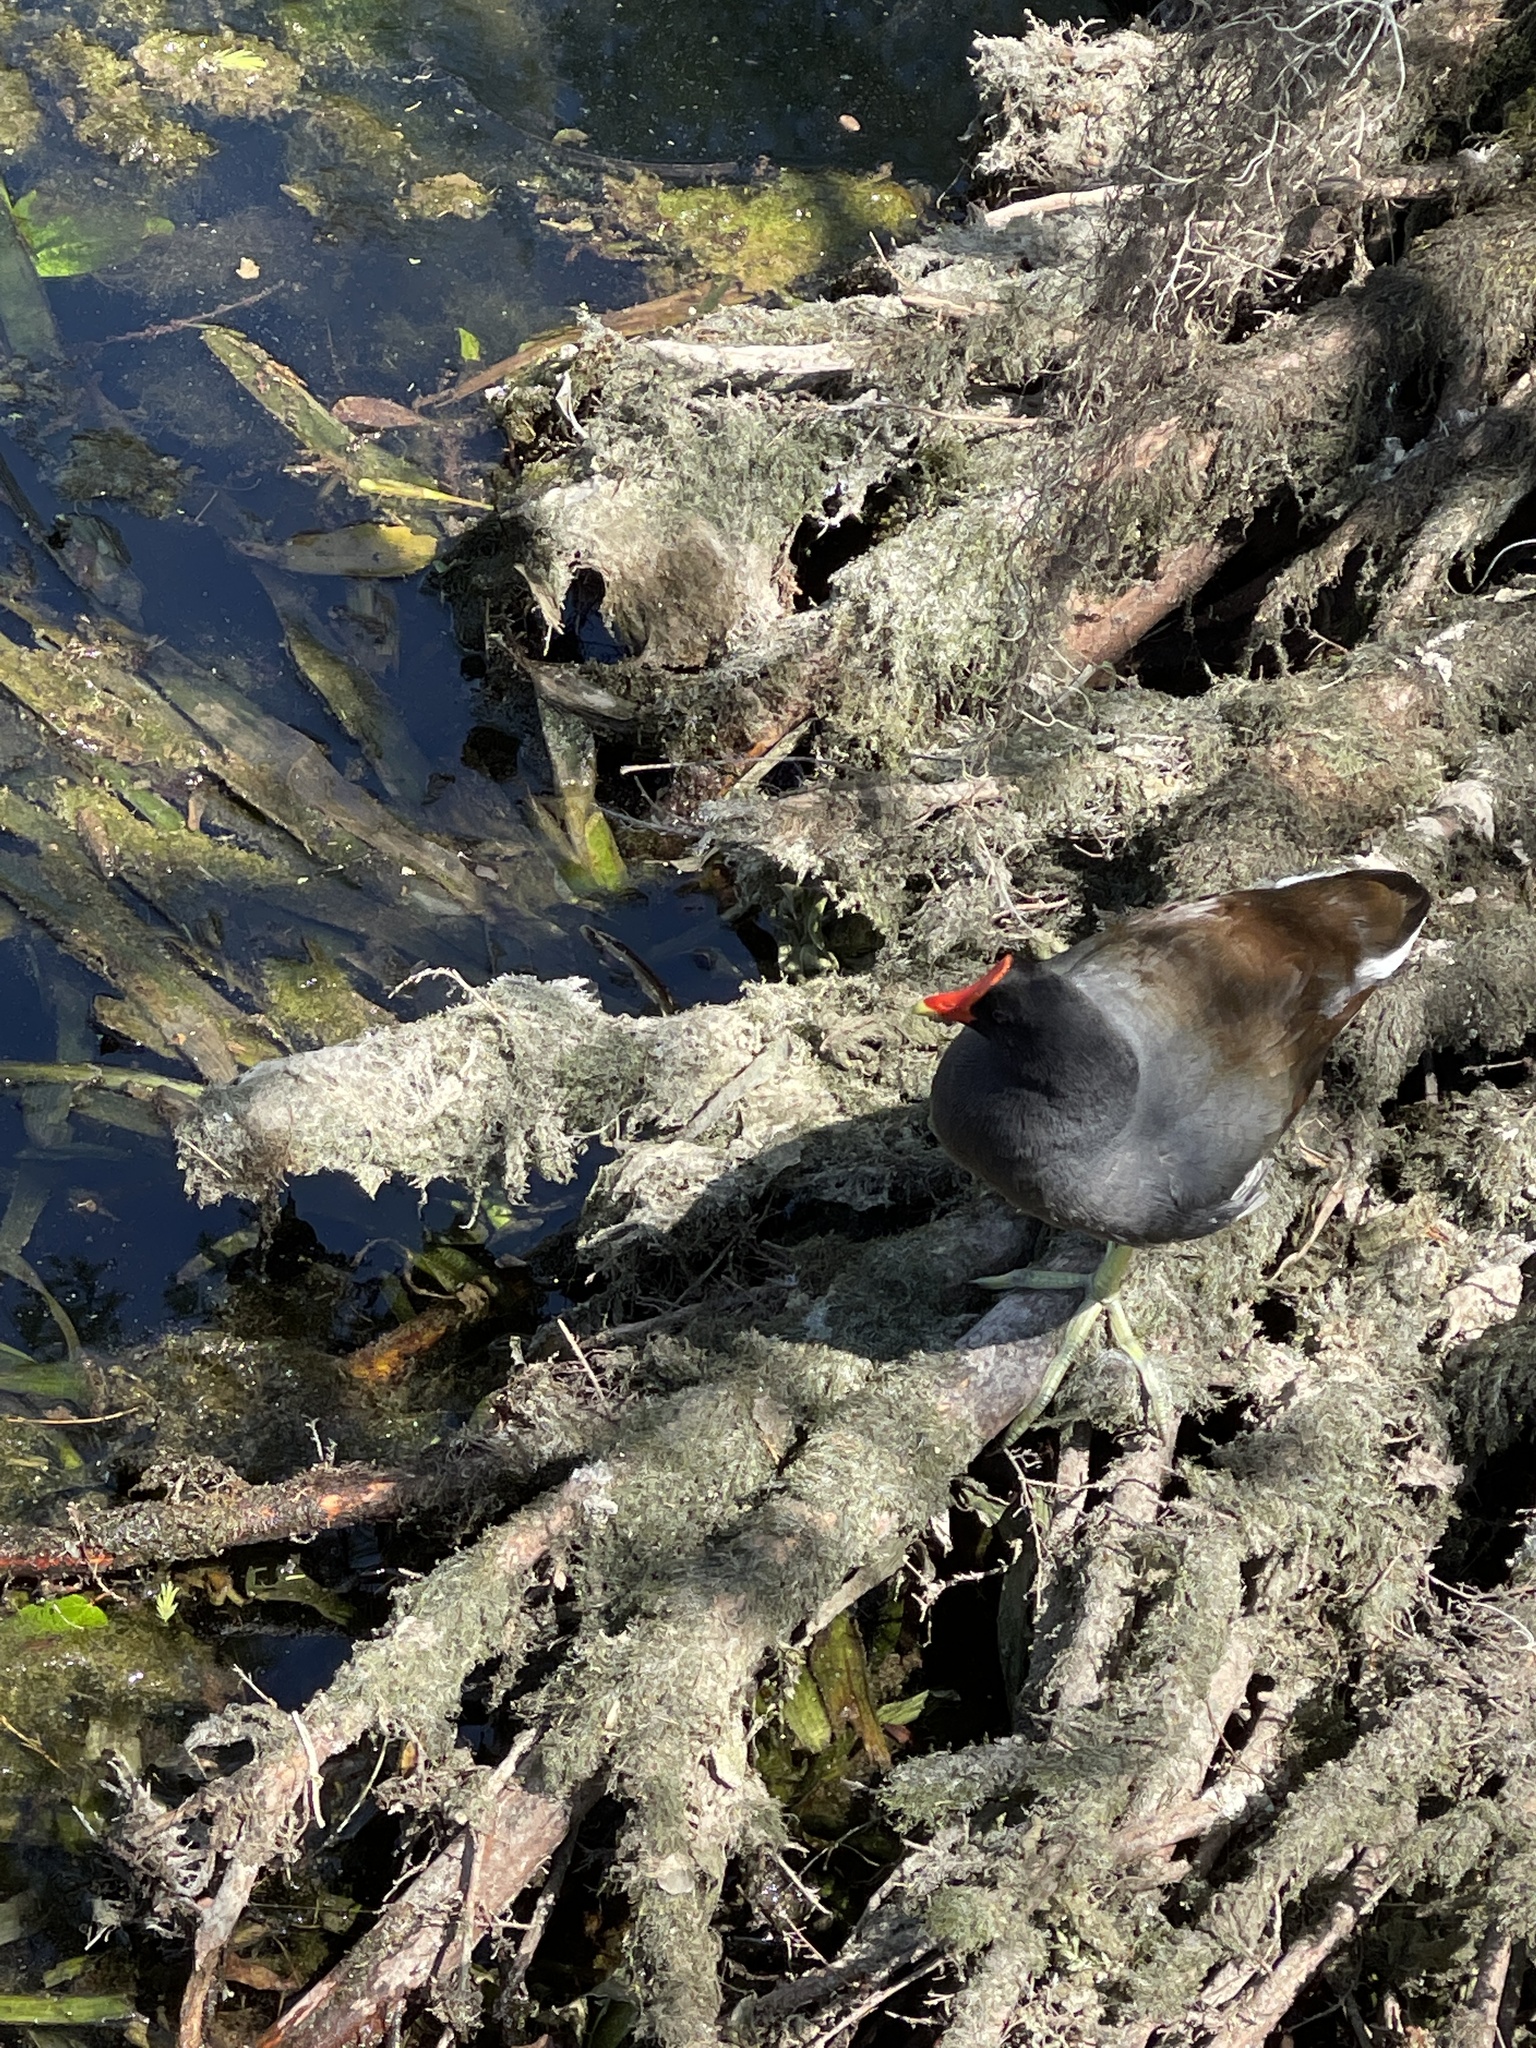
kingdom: Animalia
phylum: Chordata
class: Aves
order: Gruiformes
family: Rallidae
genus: Gallinula
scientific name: Gallinula chloropus
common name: Common moorhen
